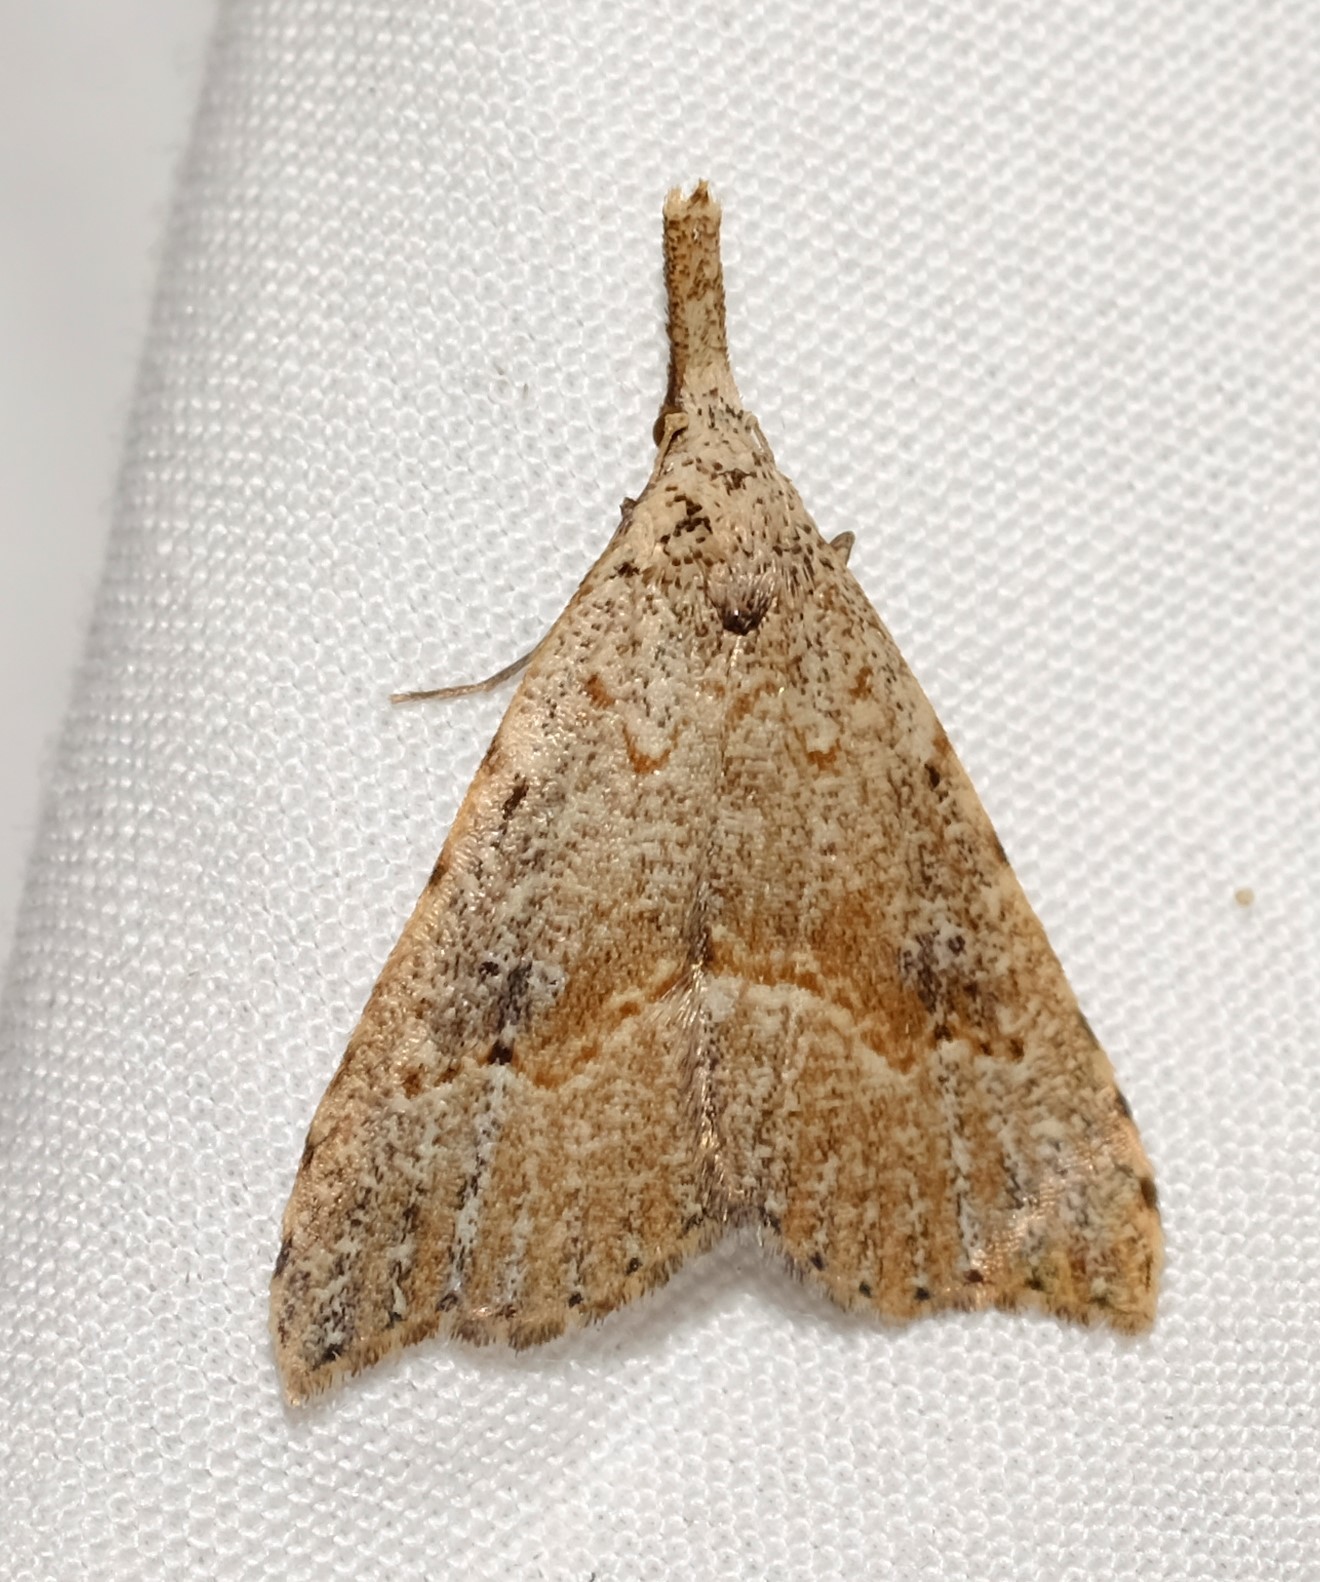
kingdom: Animalia
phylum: Arthropoda
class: Insecta
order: Lepidoptera
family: Erebidae
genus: Trigonistis
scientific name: Trigonistis asthenopa
